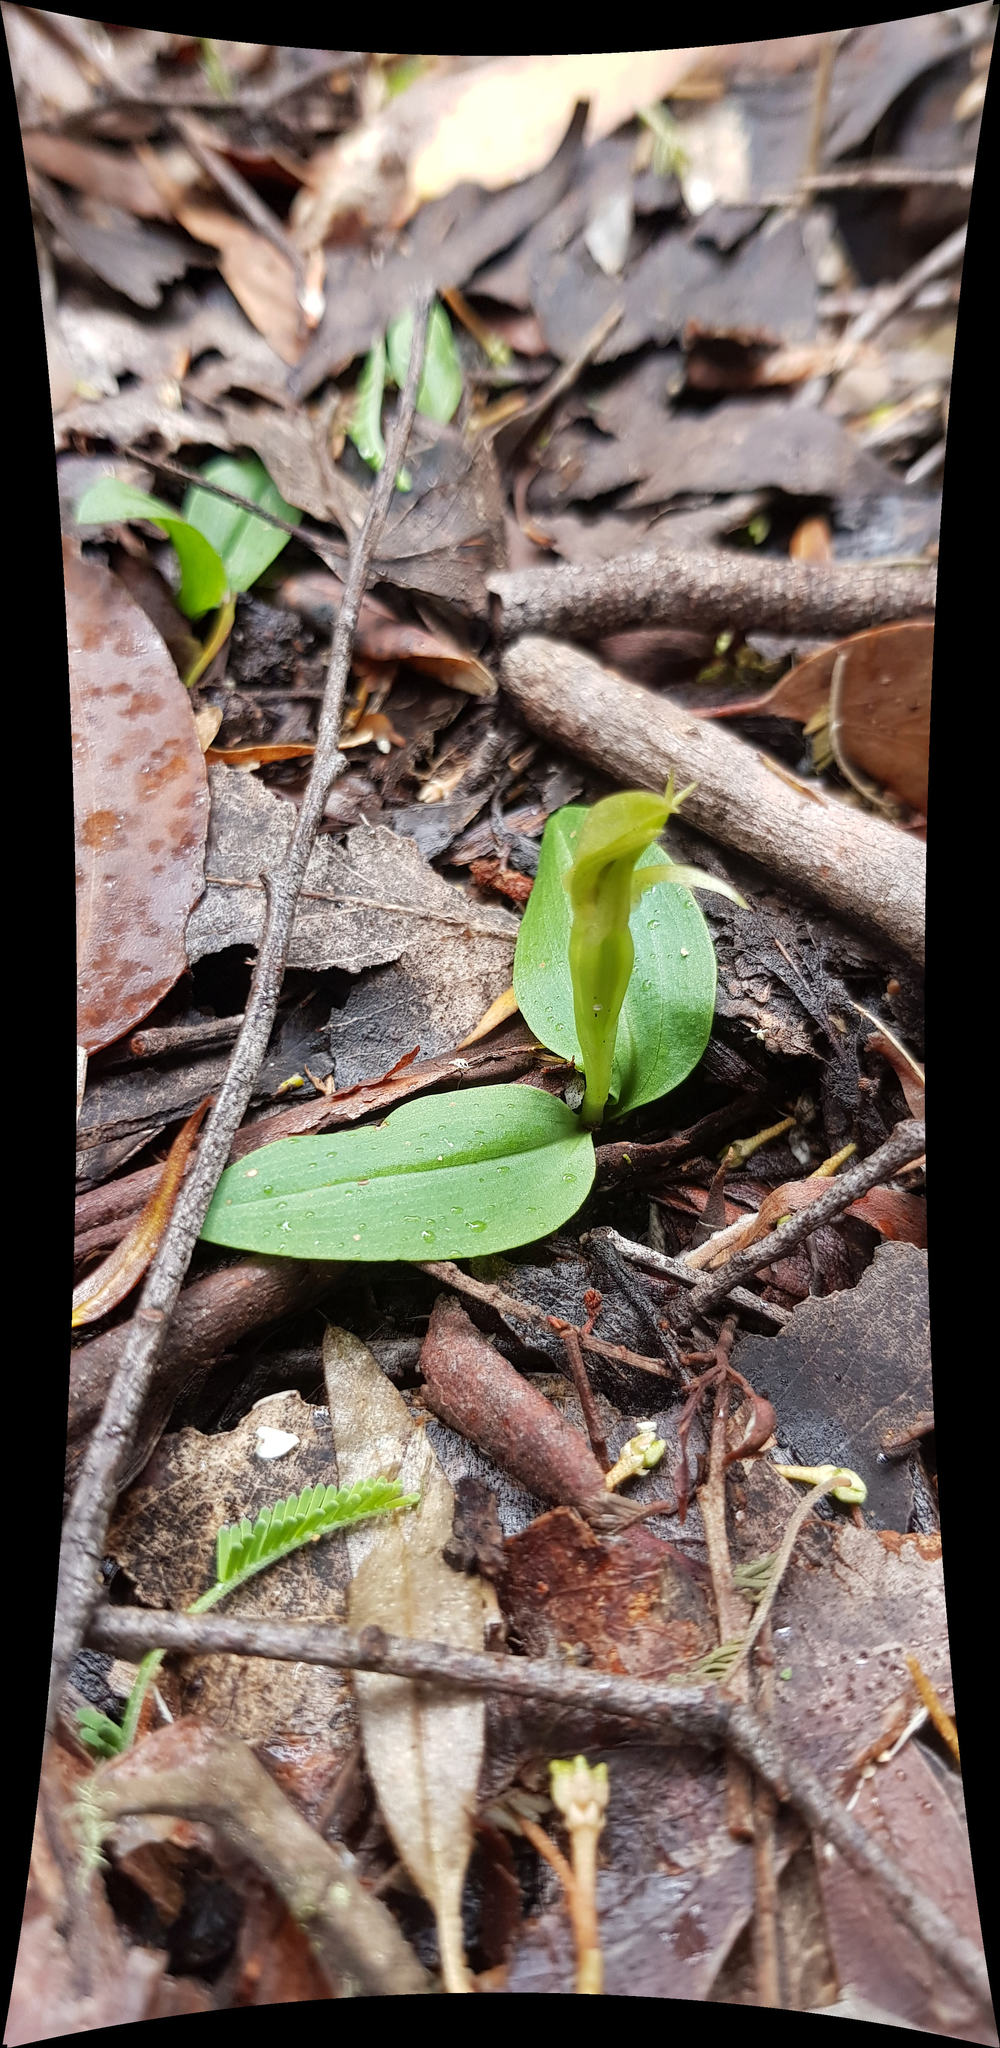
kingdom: Plantae
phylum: Tracheophyta
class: Liliopsida
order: Asparagales
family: Orchidaceae
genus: Chiloglottis
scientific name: Chiloglottis cornuta
